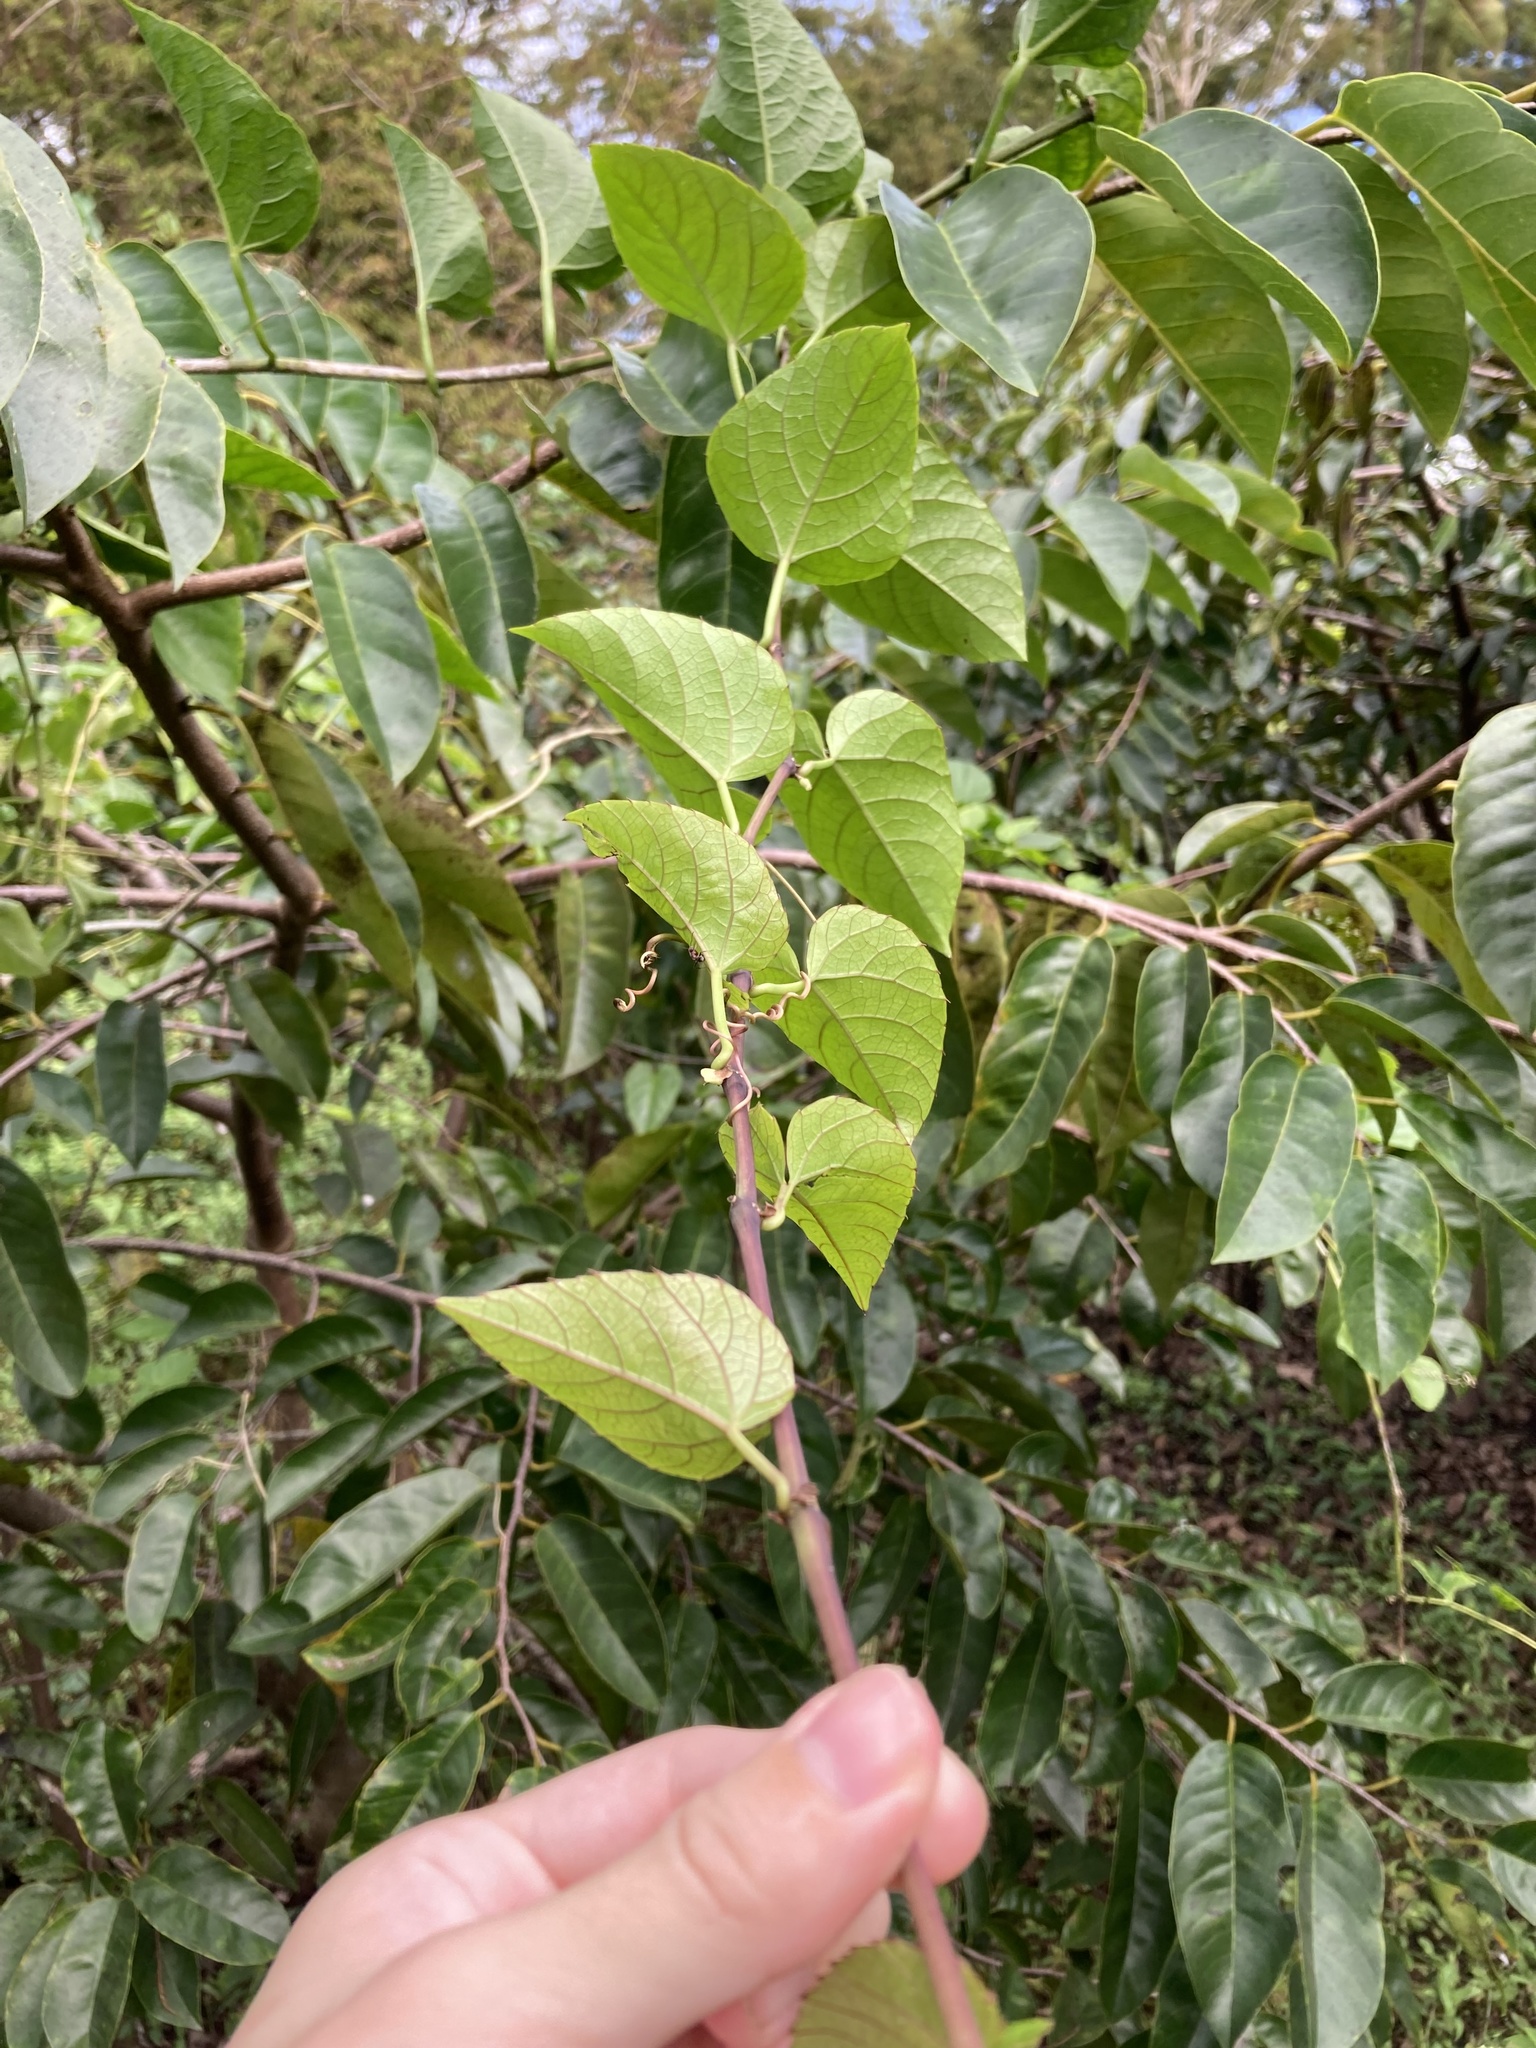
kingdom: Plantae
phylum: Tracheophyta
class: Magnoliopsida
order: Vitales
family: Vitaceae
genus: Cissus
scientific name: Cissus verticillata
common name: Princess vine
